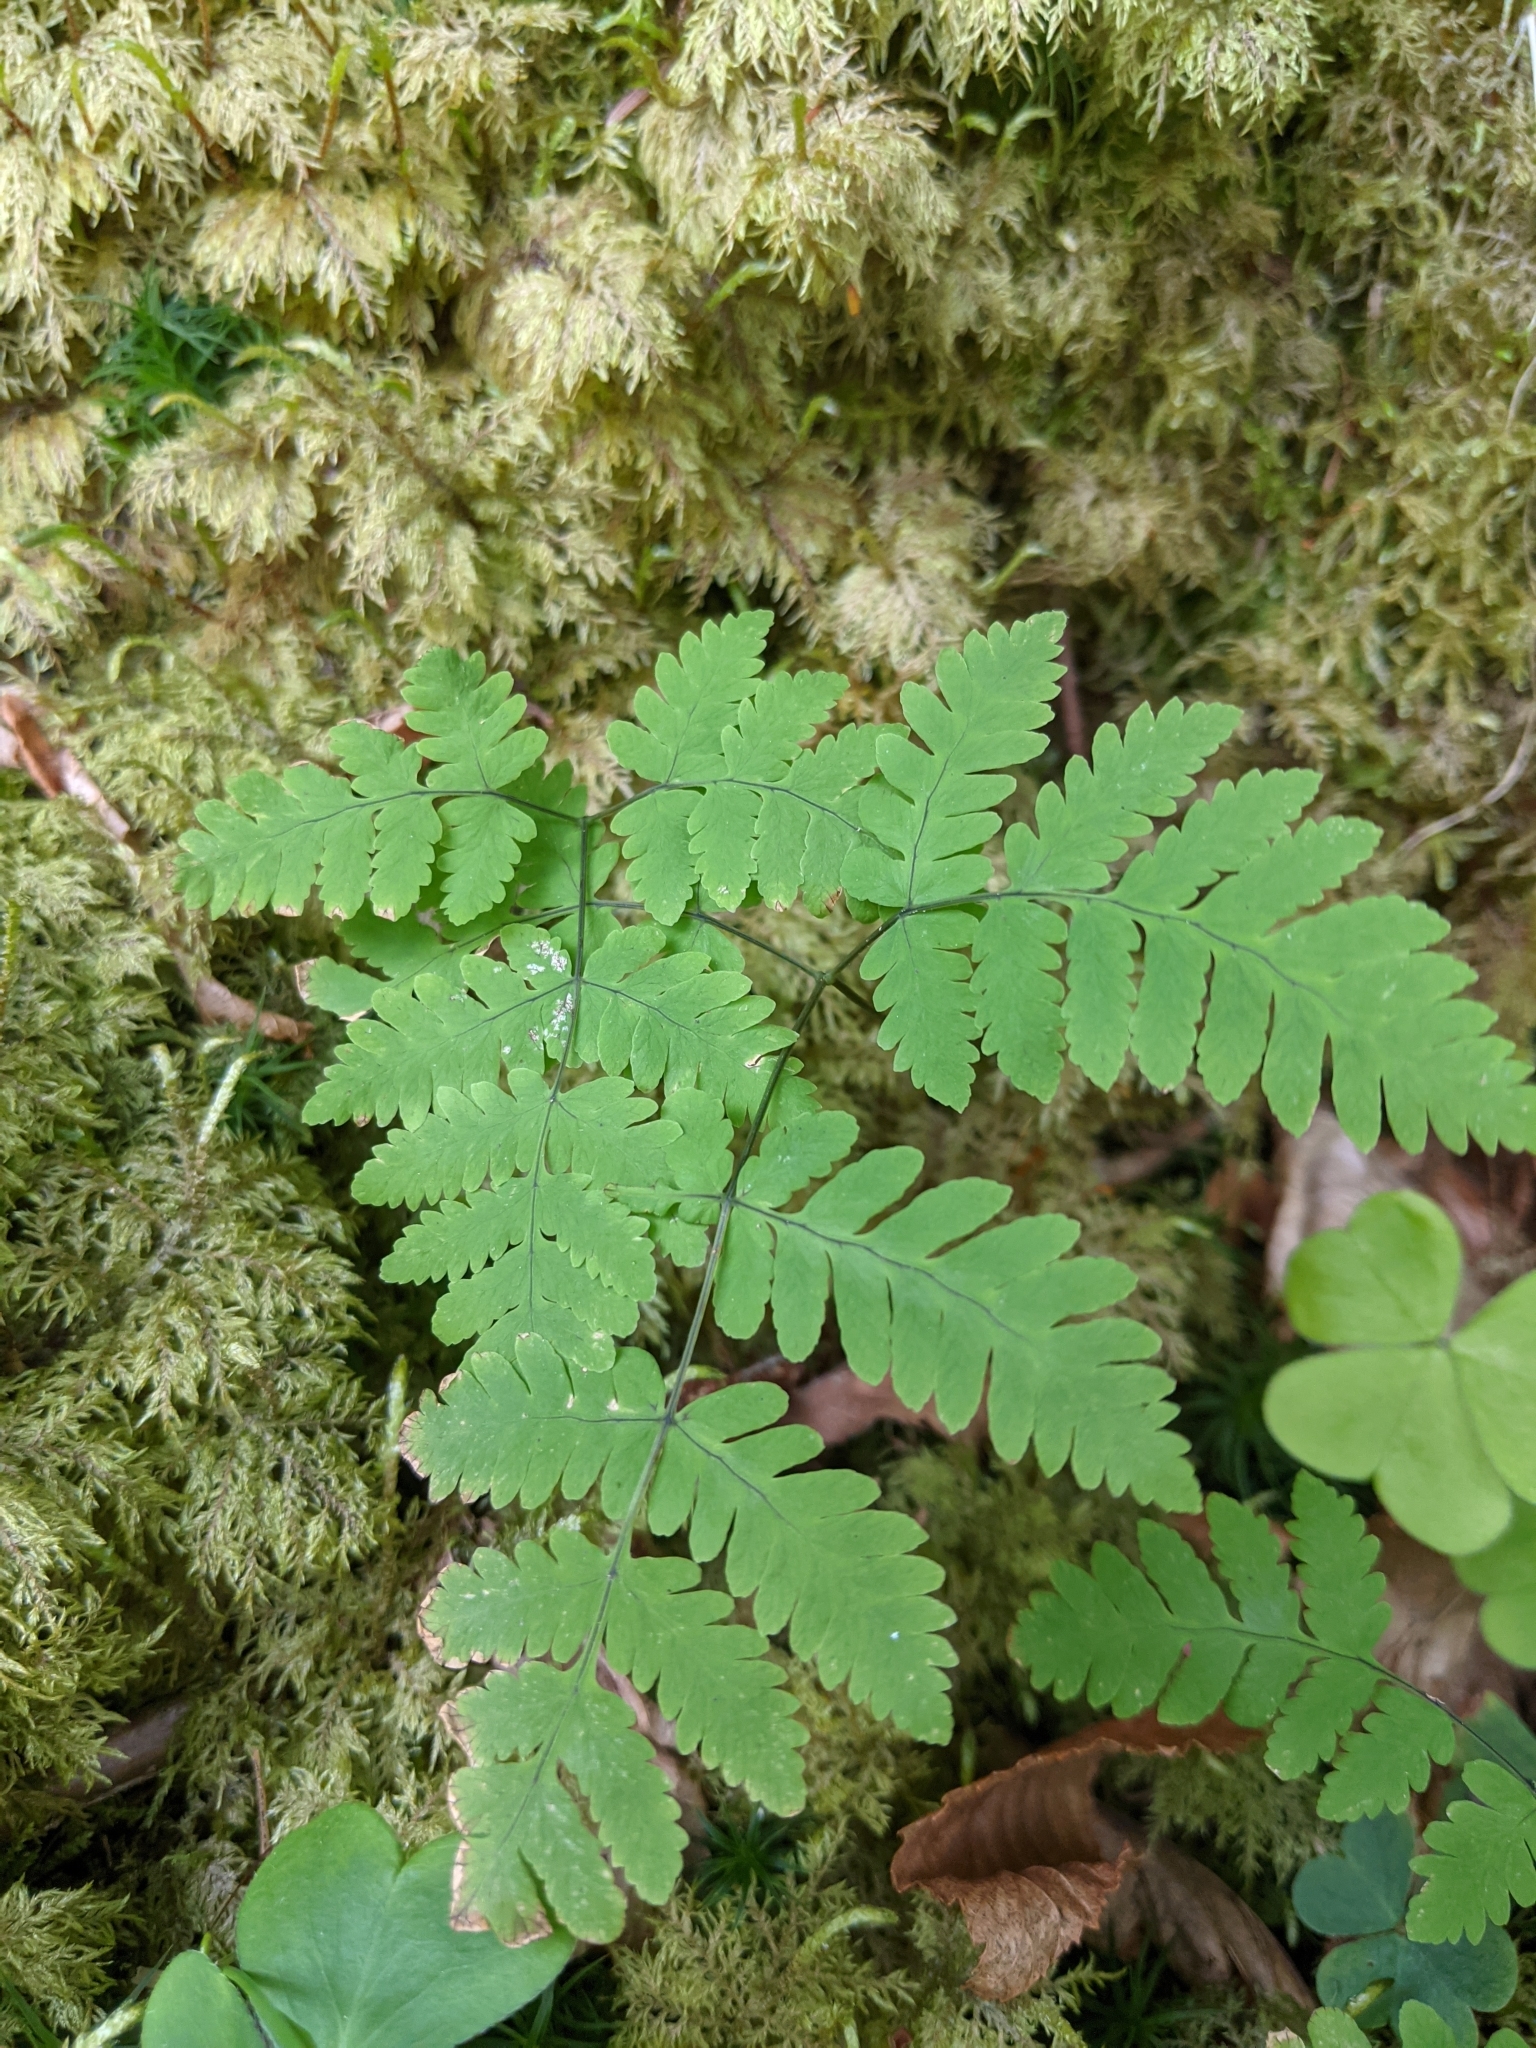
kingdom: Plantae
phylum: Tracheophyta
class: Polypodiopsida
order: Polypodiales
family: Cystopteridaceae
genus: Gymnocarpium
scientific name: Gymnocarpium dryopteris
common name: Oak fern
